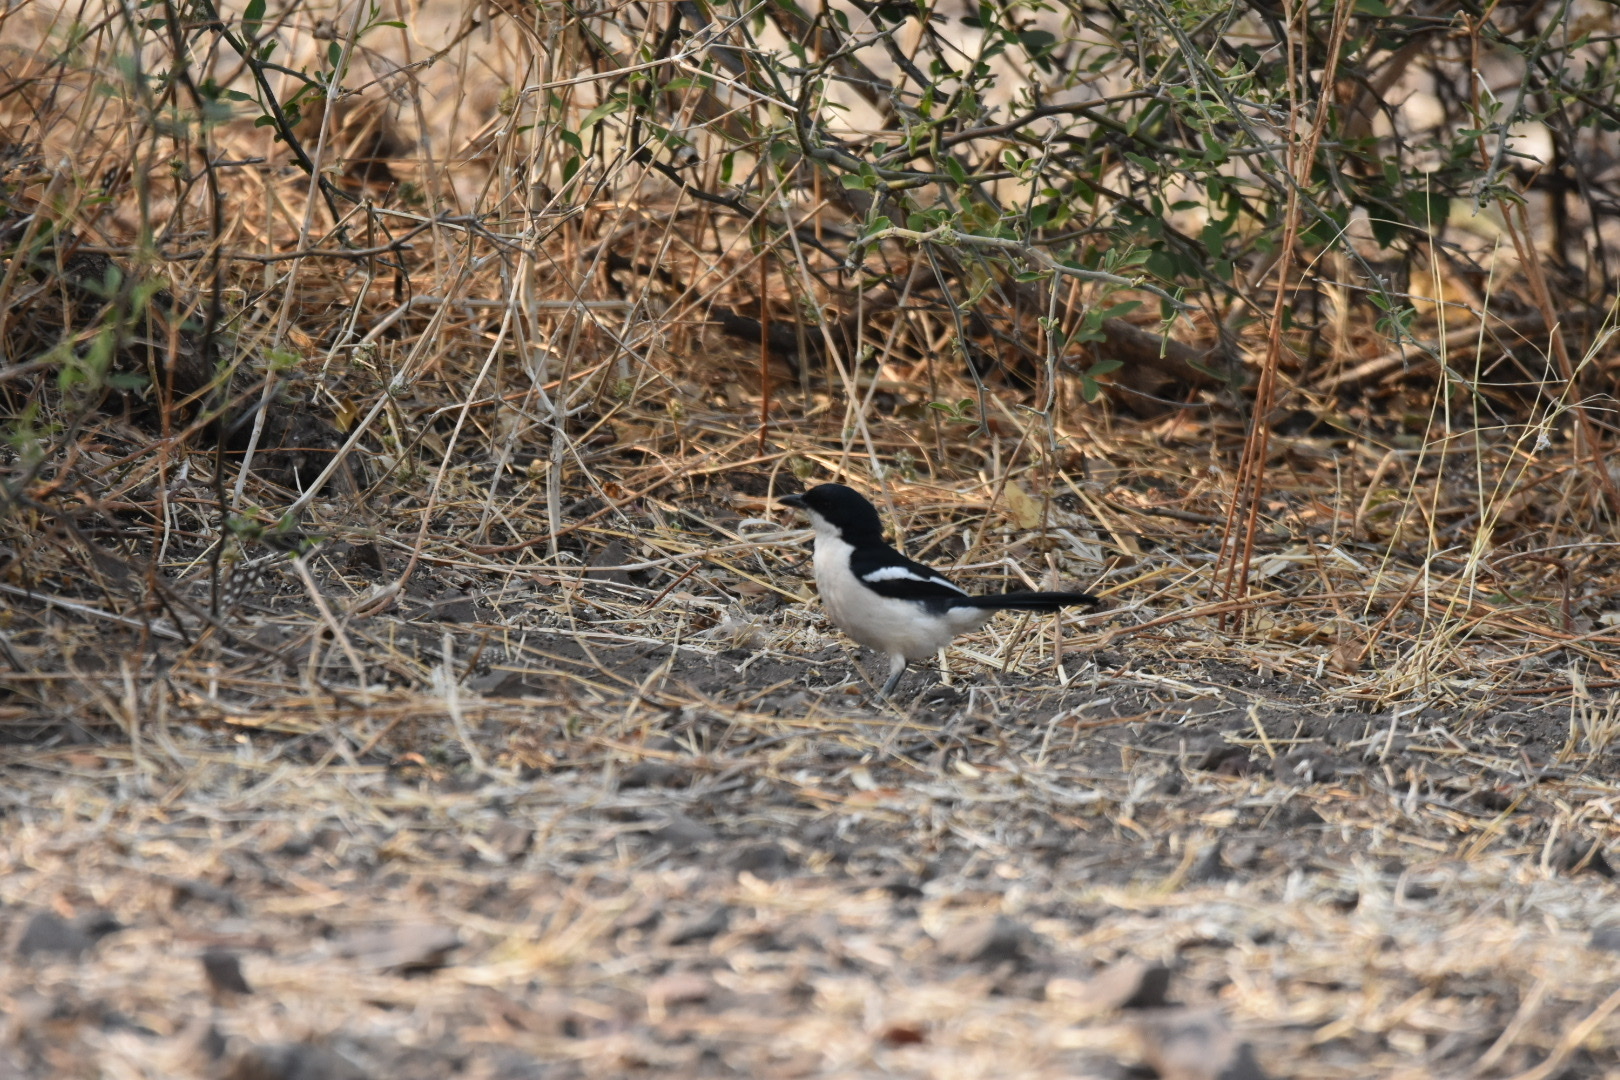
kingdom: Animalia
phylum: Chordata
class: Aves
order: Passeriformes
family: Malaconotidae
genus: Laniarius
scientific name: Laniarius bicolor
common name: Swamp boubou
